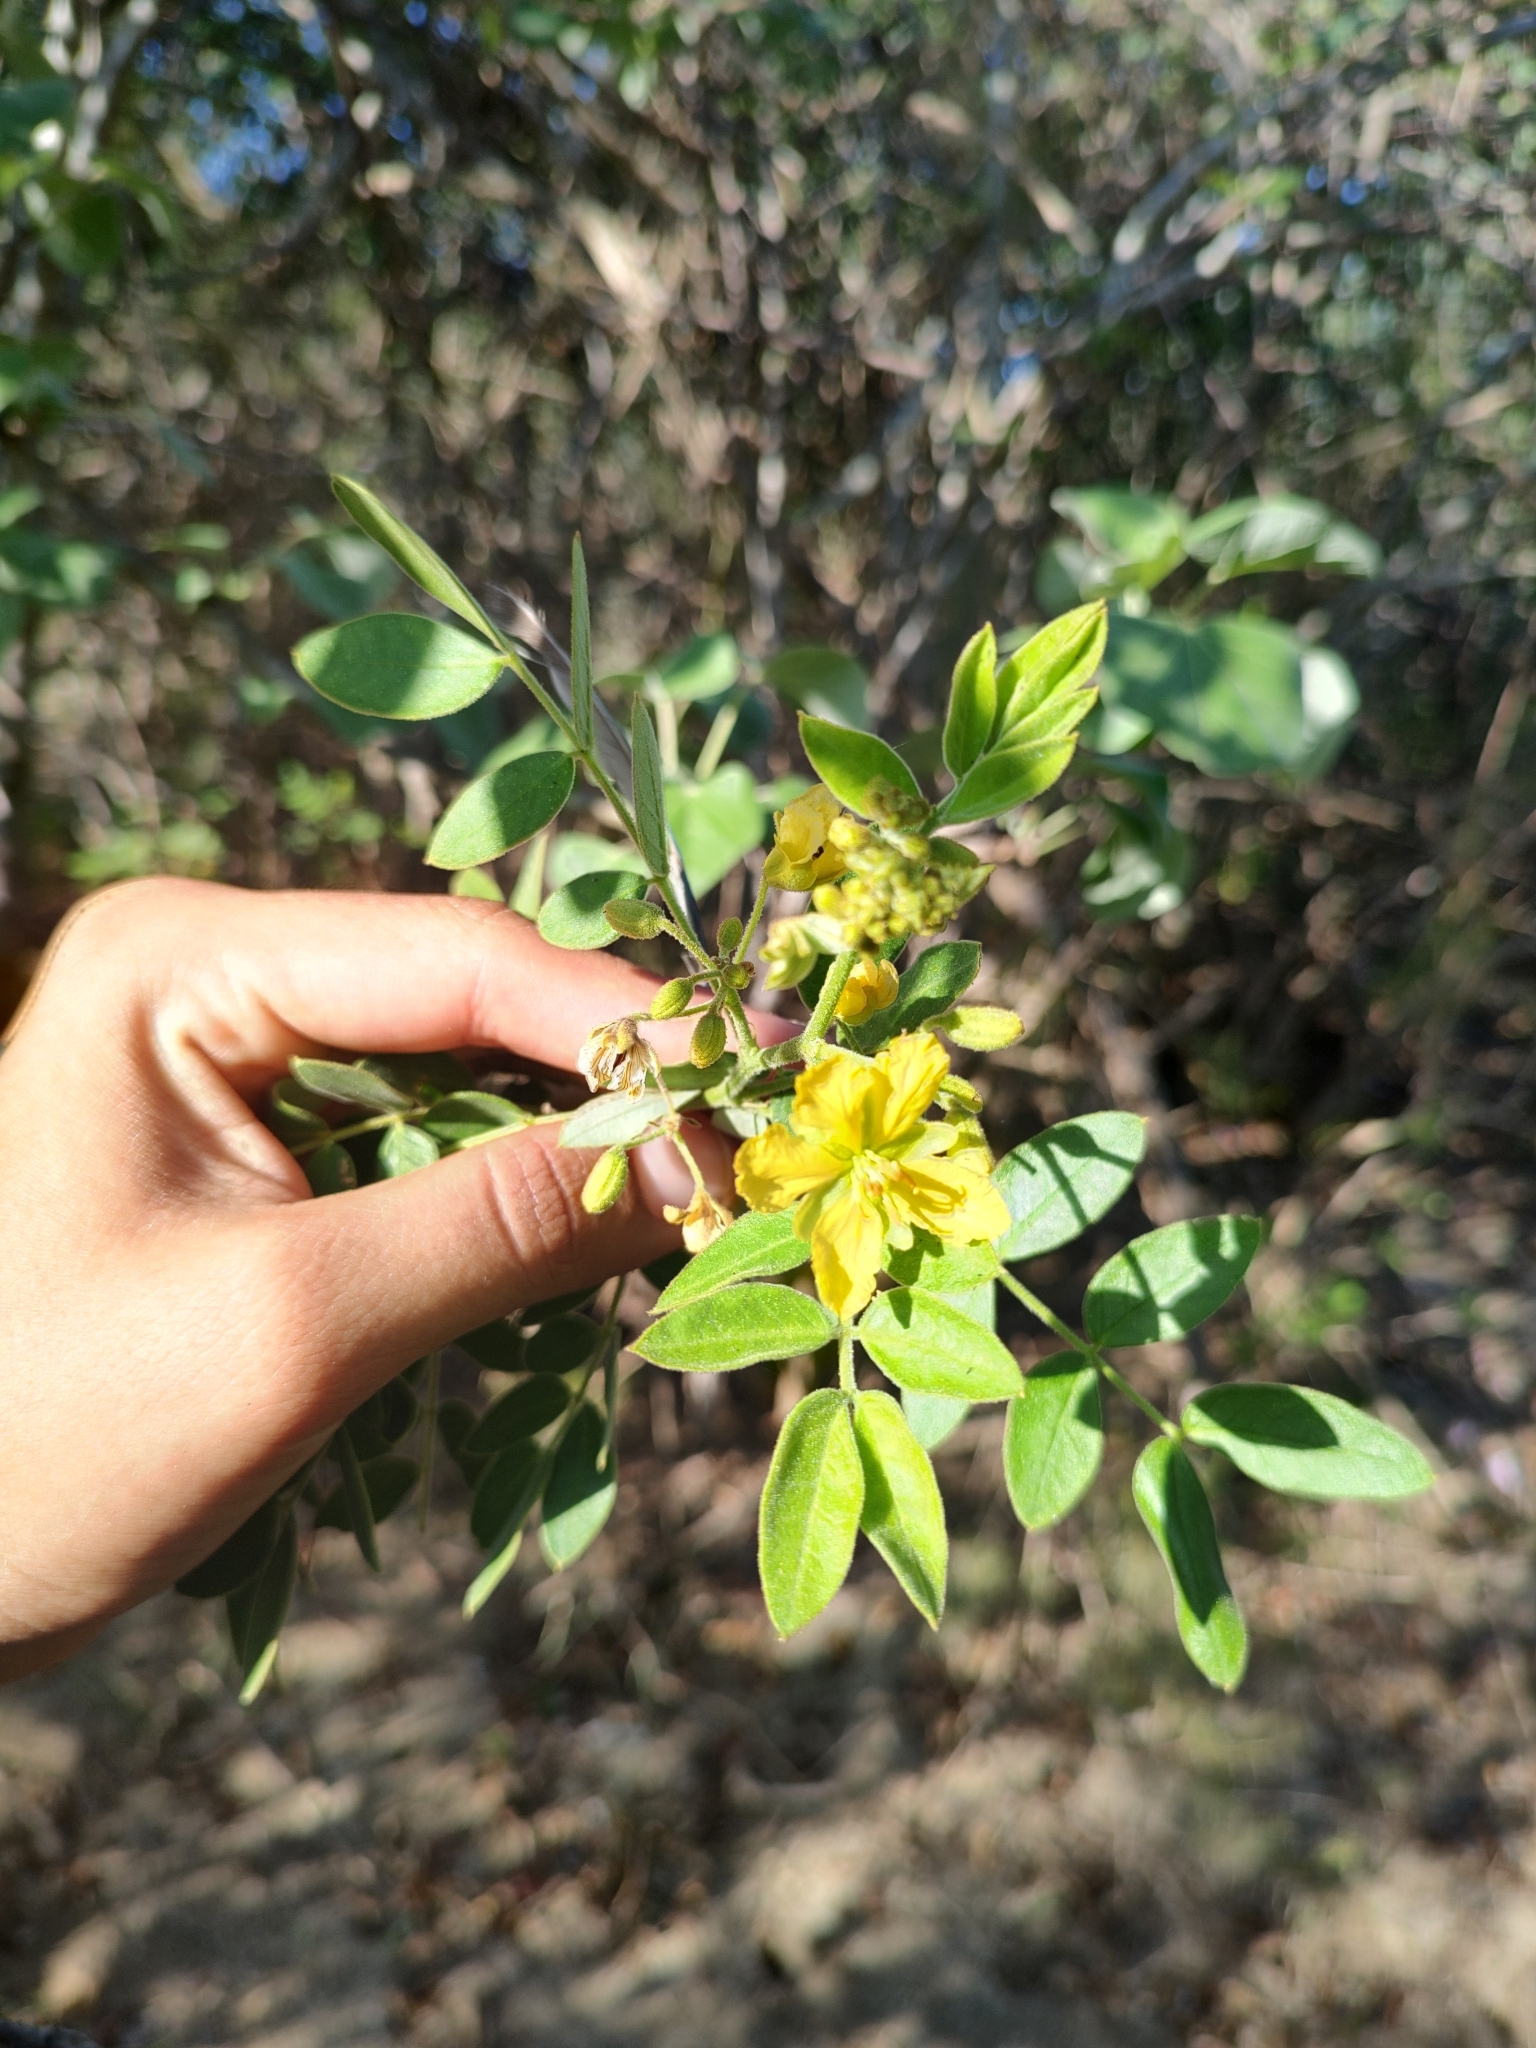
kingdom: Plantae
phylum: Tracheophyta
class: Magnoliopsida
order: Fabales
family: Fabaceae
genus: Senna
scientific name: Senna villosa
